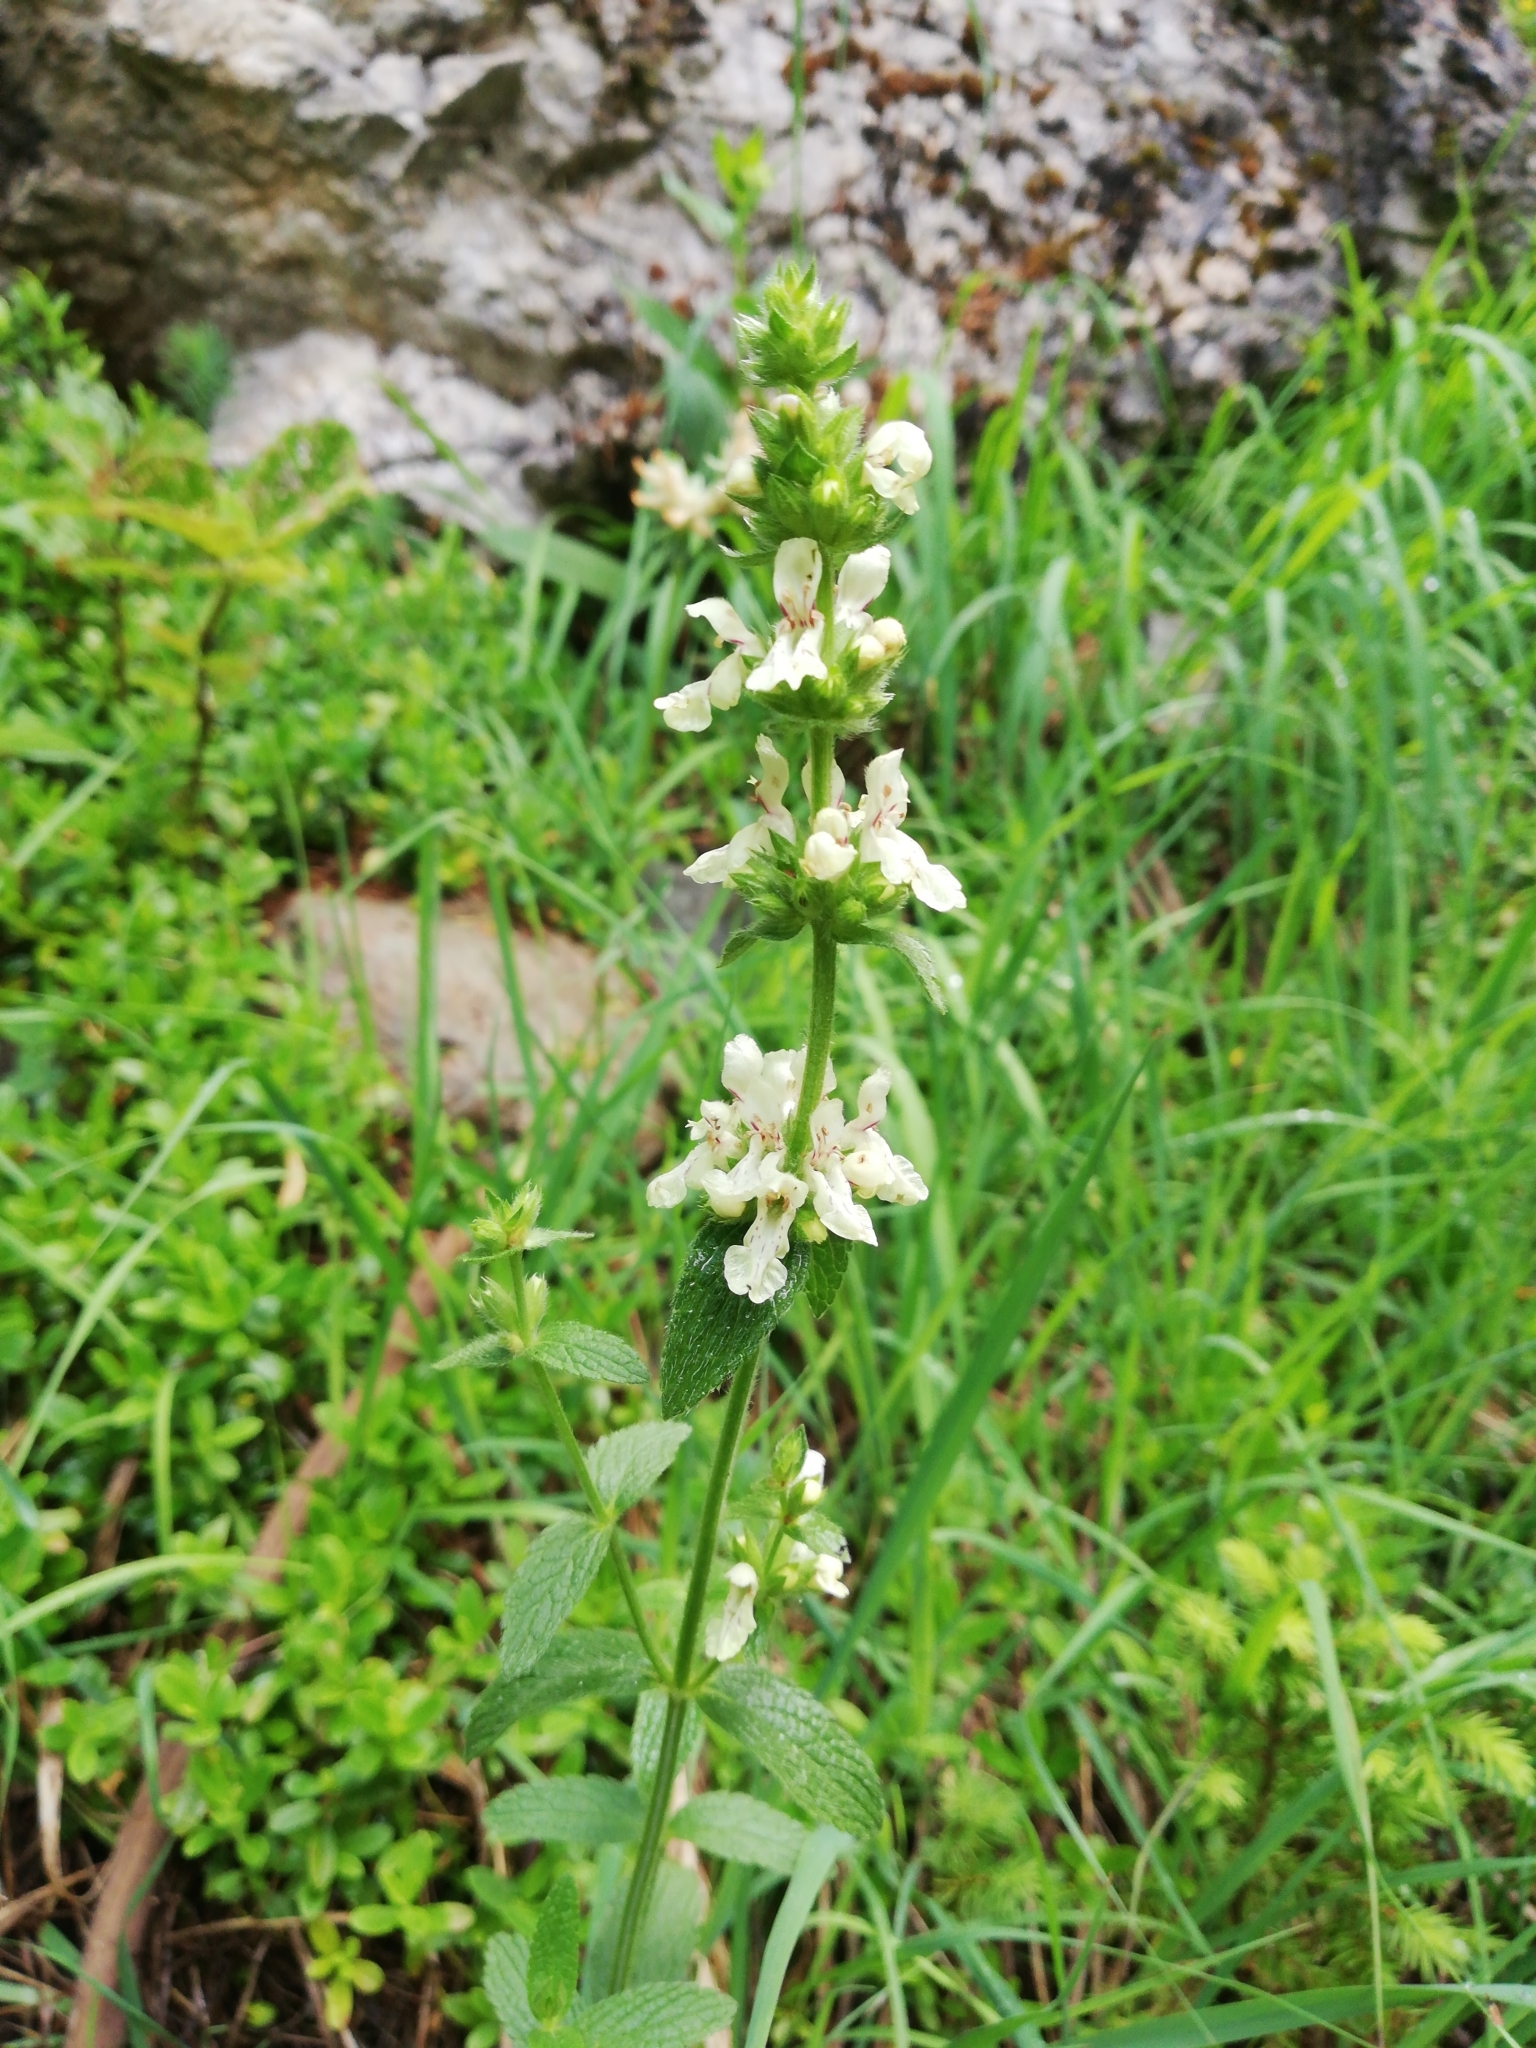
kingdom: Plantae
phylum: Tracheophyta
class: Magnoliopsida
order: Lamiales
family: Lamiaceae
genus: Stachys
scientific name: Stachys recta
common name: Perennial yellow-woundwort
